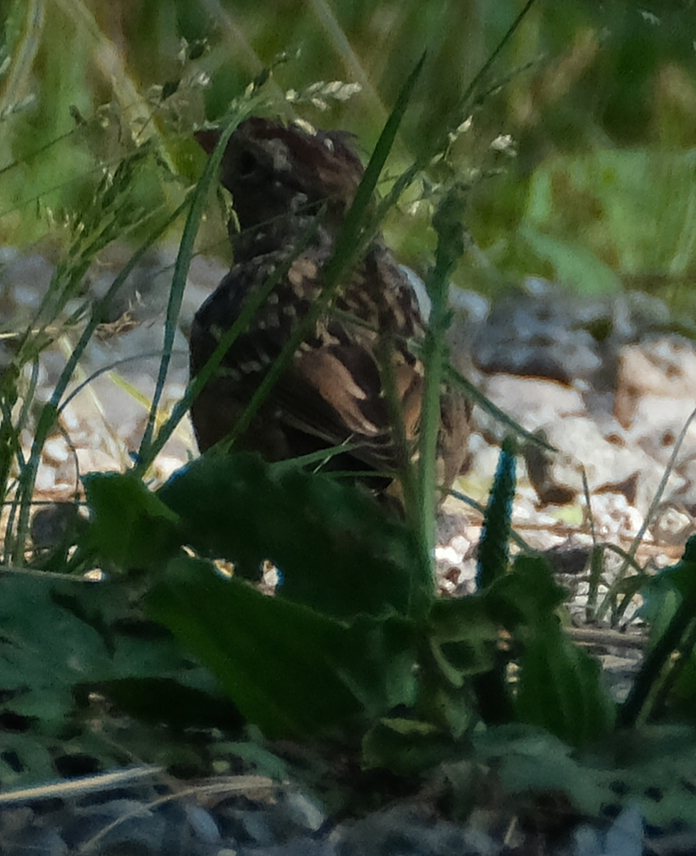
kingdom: Animalia
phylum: Chordata
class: Aves
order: Passeriformes
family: Passerellidae
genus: Zonotrichia
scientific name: Zonotrichia leucophrys
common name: White-crowned sparrow
